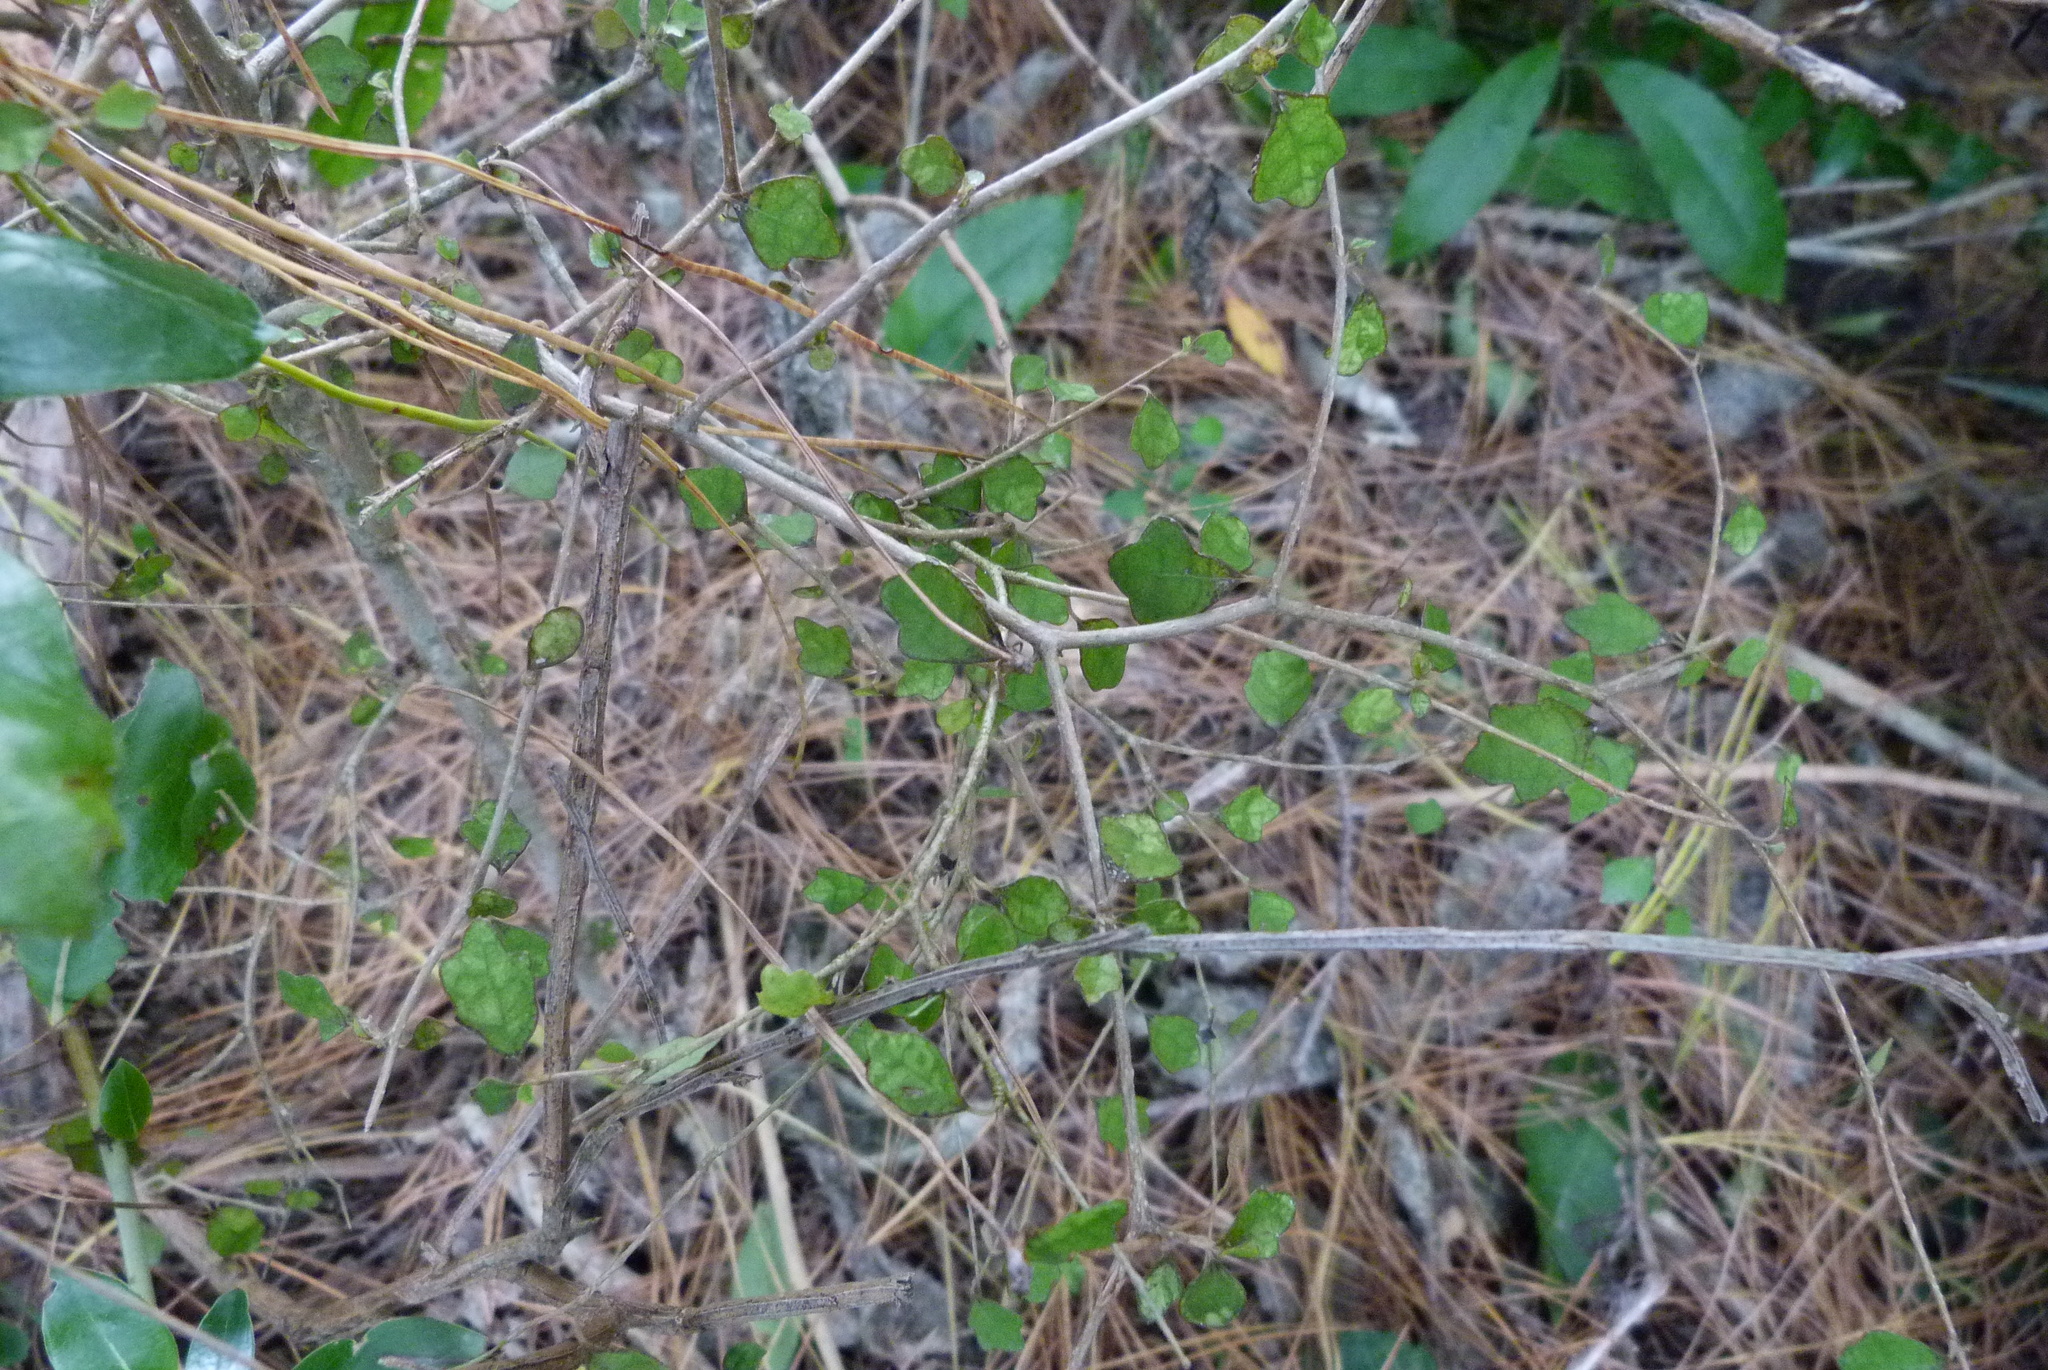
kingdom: Plantae
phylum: Tracheophyta
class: Magnoliopsida
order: Apiales
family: Pennantiaceae
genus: Pennantia
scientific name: Pennantia corymbosa
